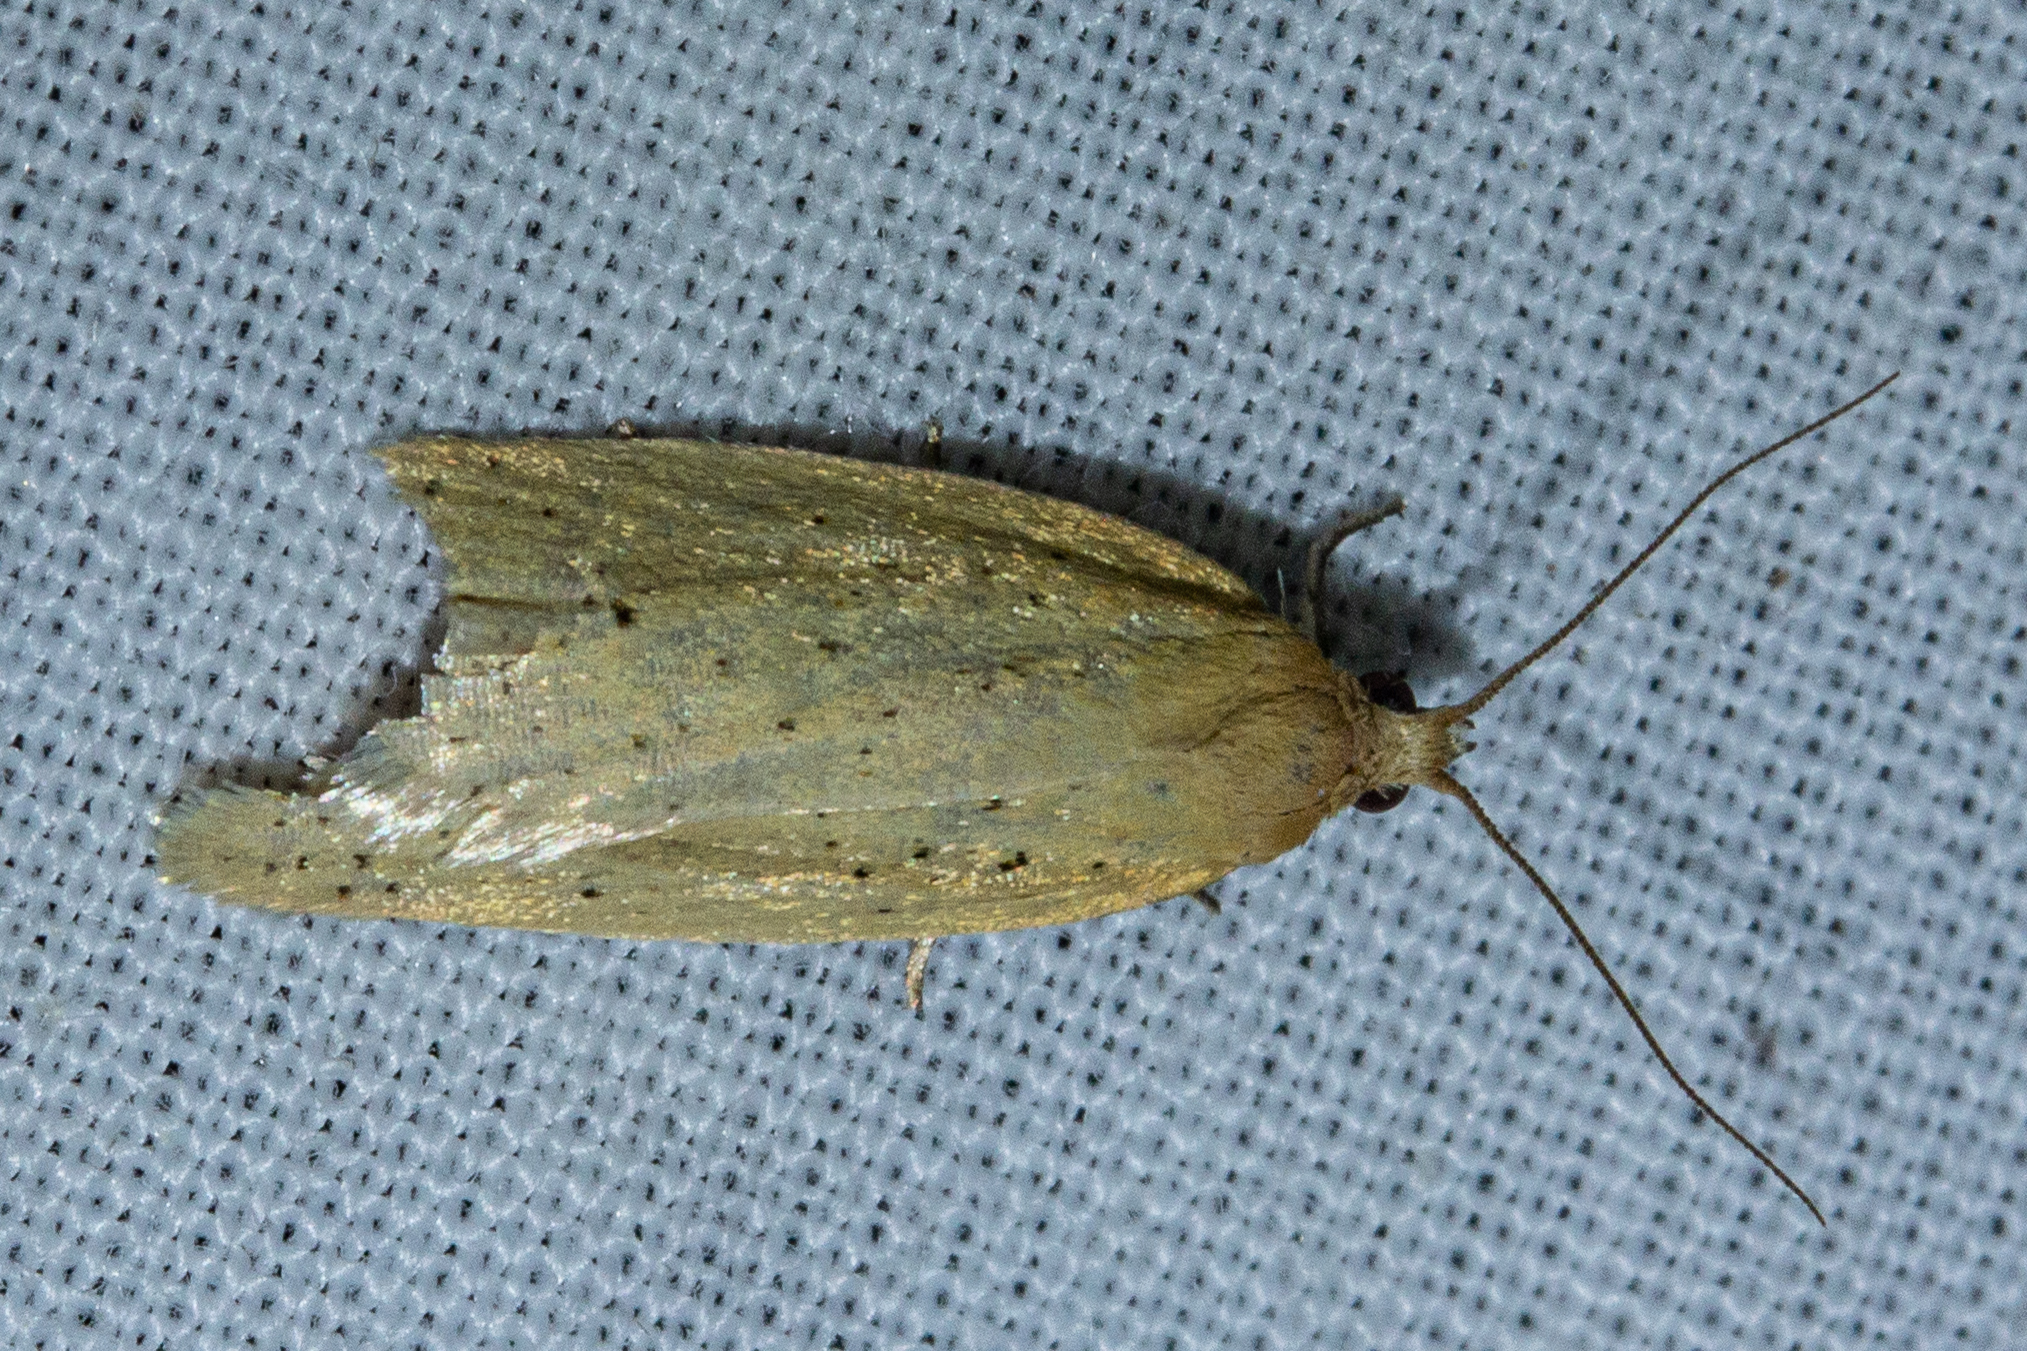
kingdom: Animalia
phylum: Arthropoda
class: Insecta
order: Lepidoptera
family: Tortricidae
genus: Clepsis
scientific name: Clepsis
